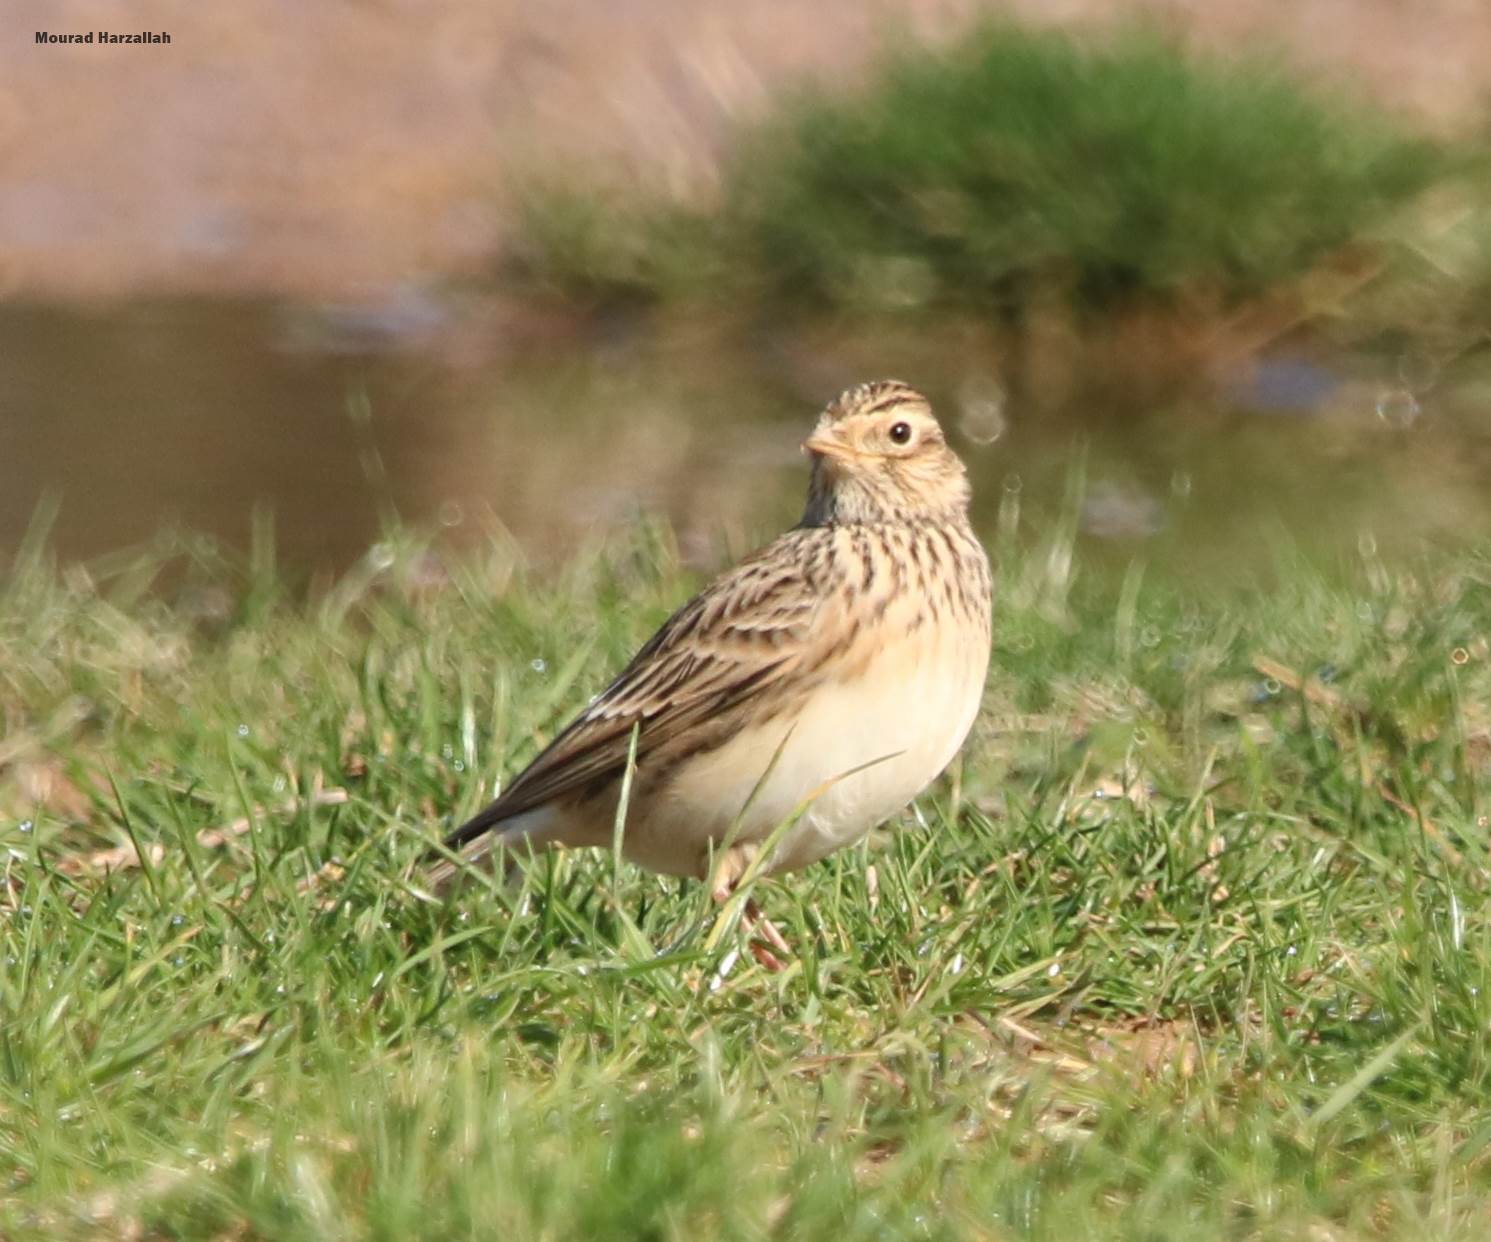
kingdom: Animalia
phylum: Chordata
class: Aves
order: Passeriformes
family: Alaudidae
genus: Lullula
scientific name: Lullula arborea
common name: Woodlark
